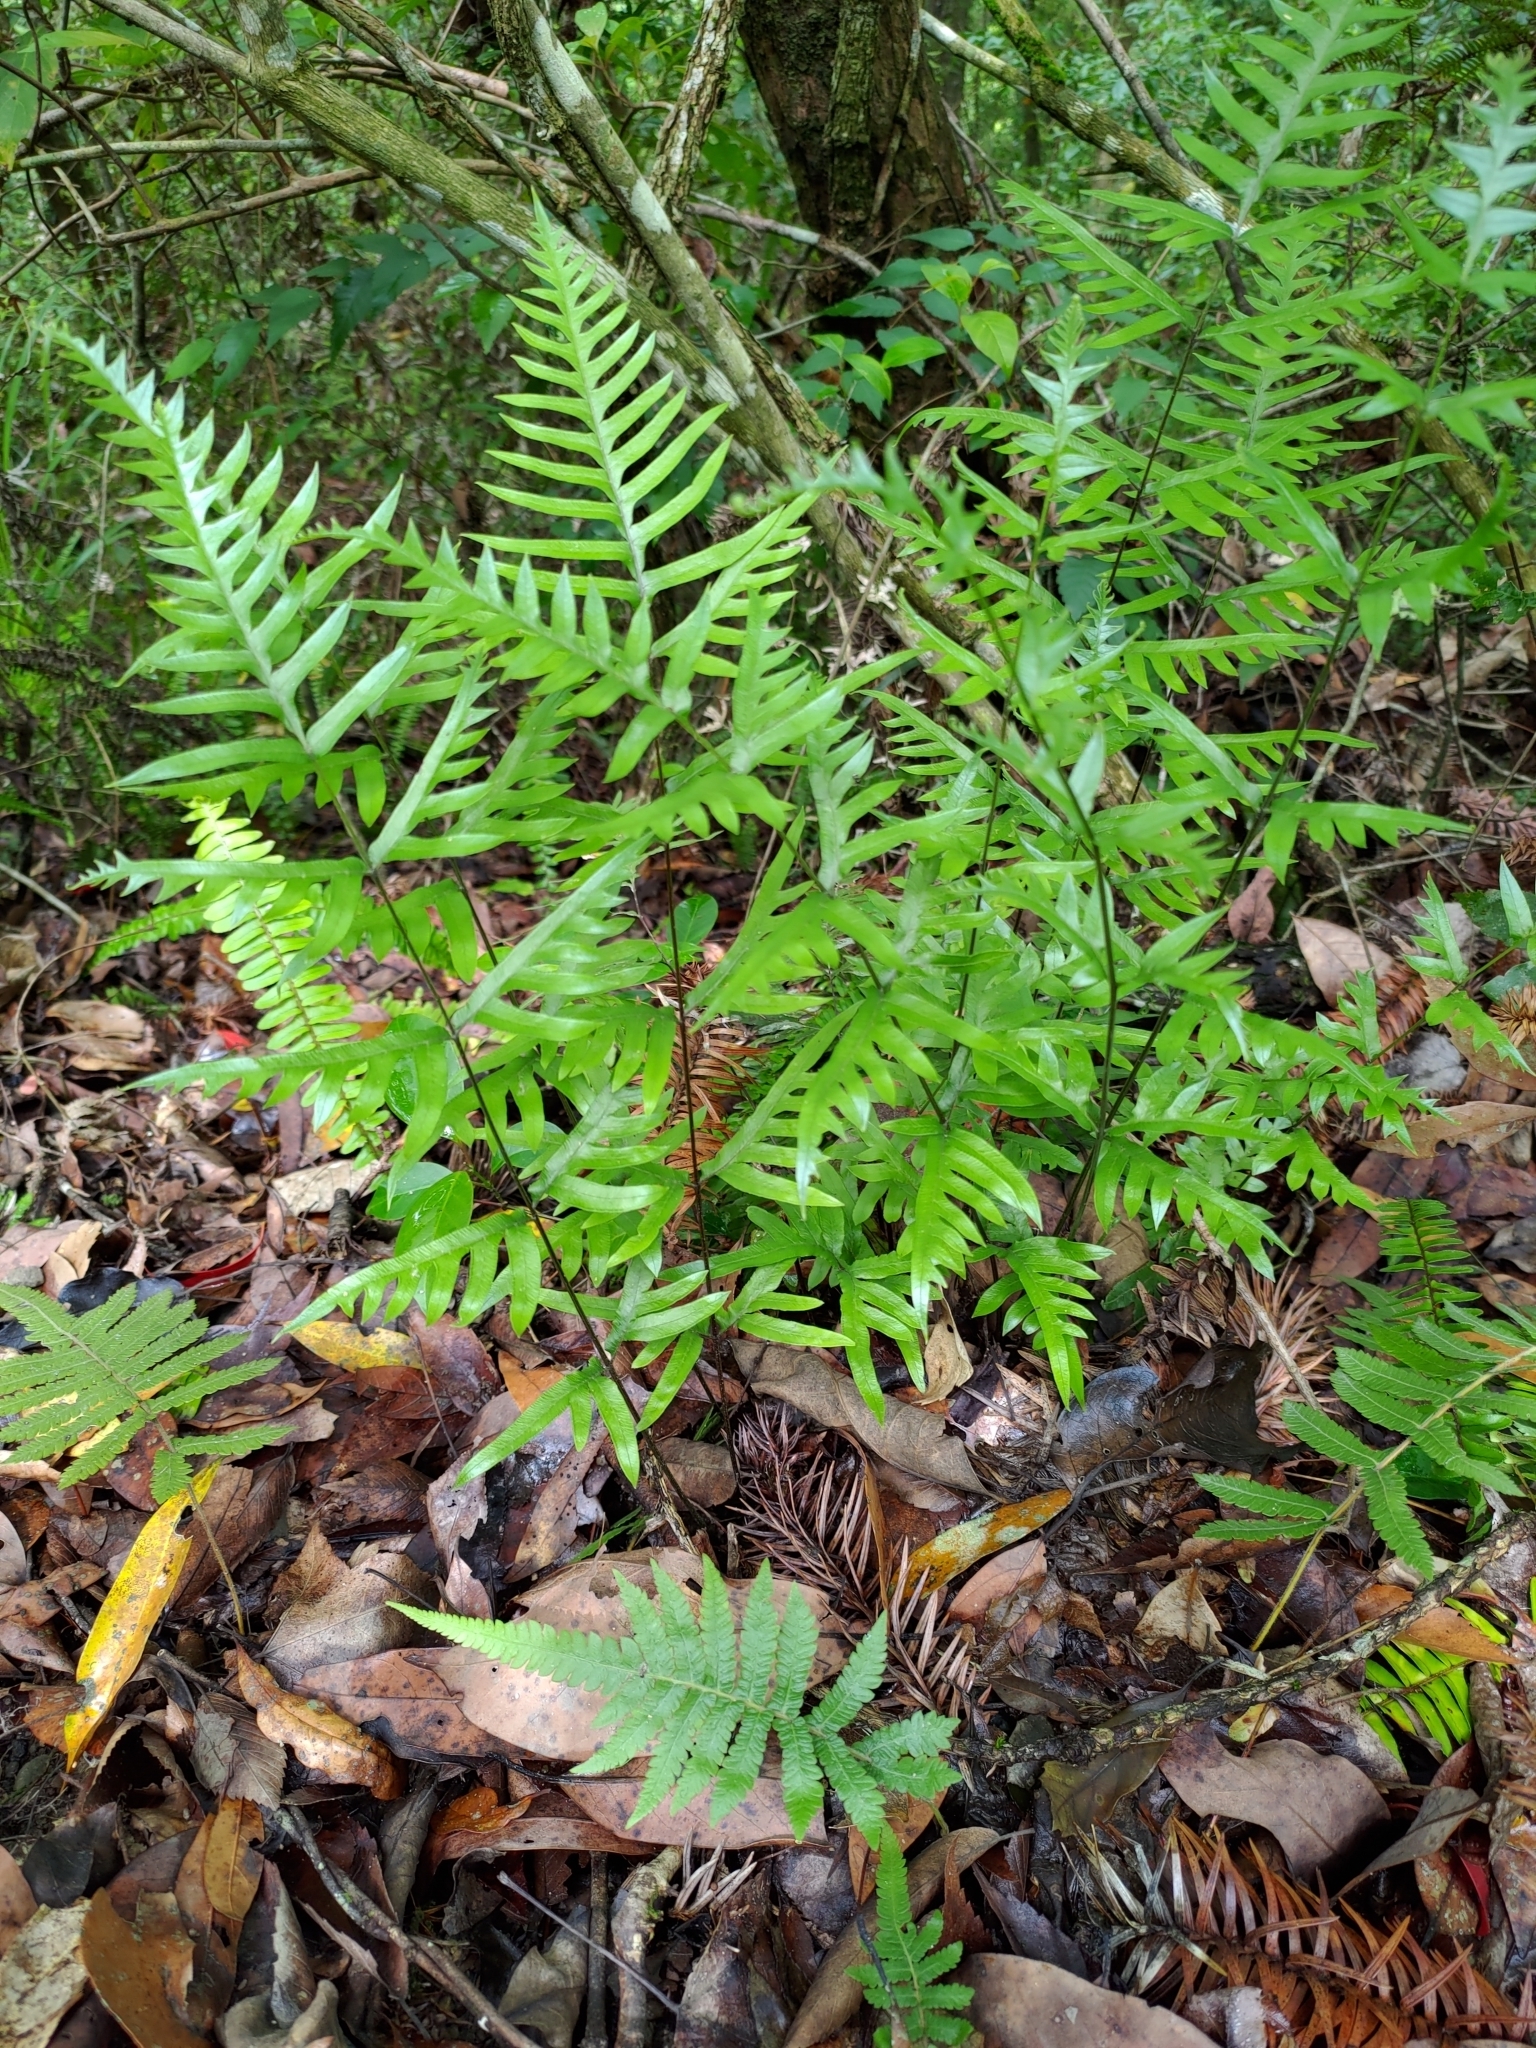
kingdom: Plantae
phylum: Tracheophyta
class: Polypodiopsida
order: Polypodiales
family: Pteridaceae
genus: Pteris
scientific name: Pteris semipinnata
